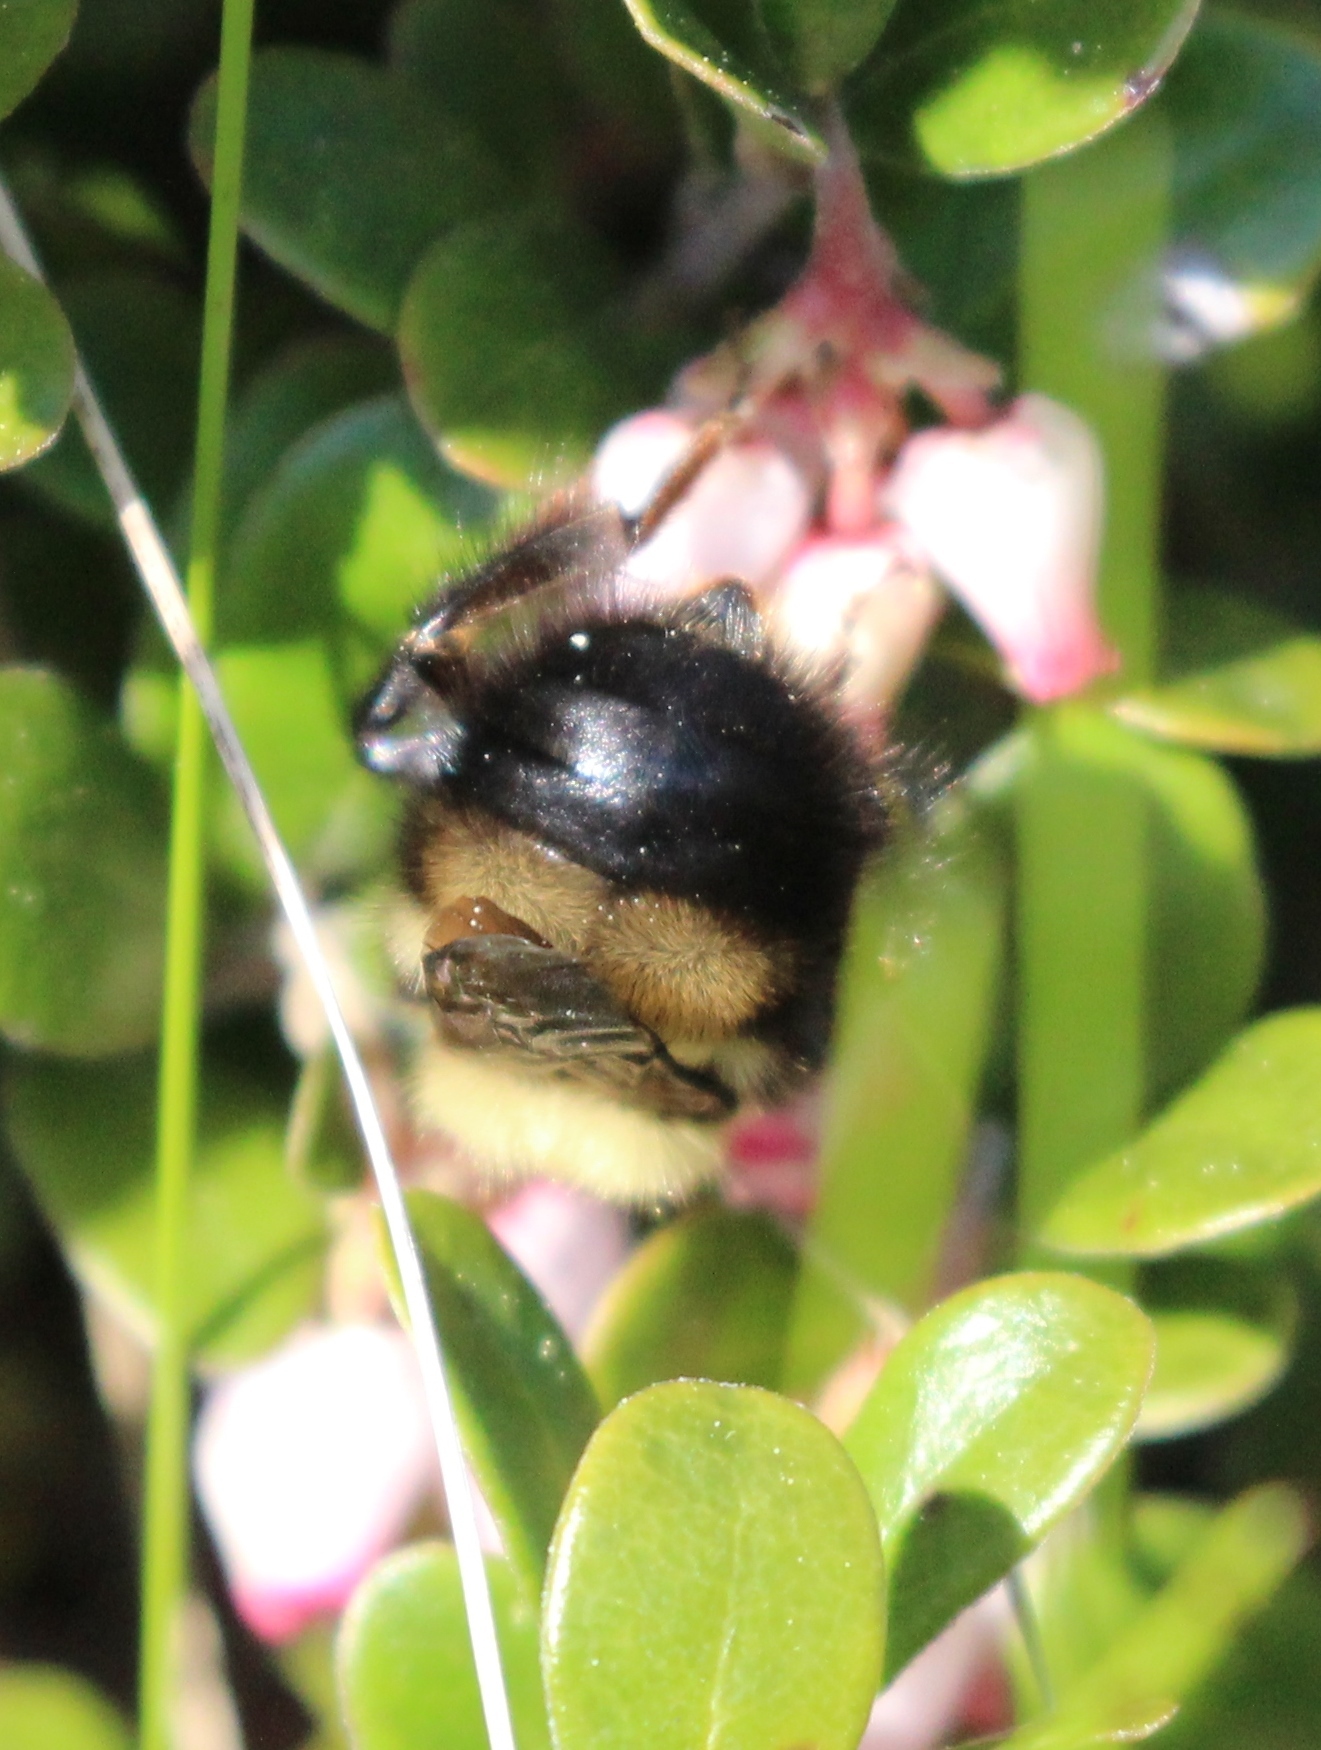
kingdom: Animalia
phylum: Arthropoda
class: Insecta
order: Hymenoptera
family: Apidae
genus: Bombus
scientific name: Bombus perplexus
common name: Confusing bumble bee
